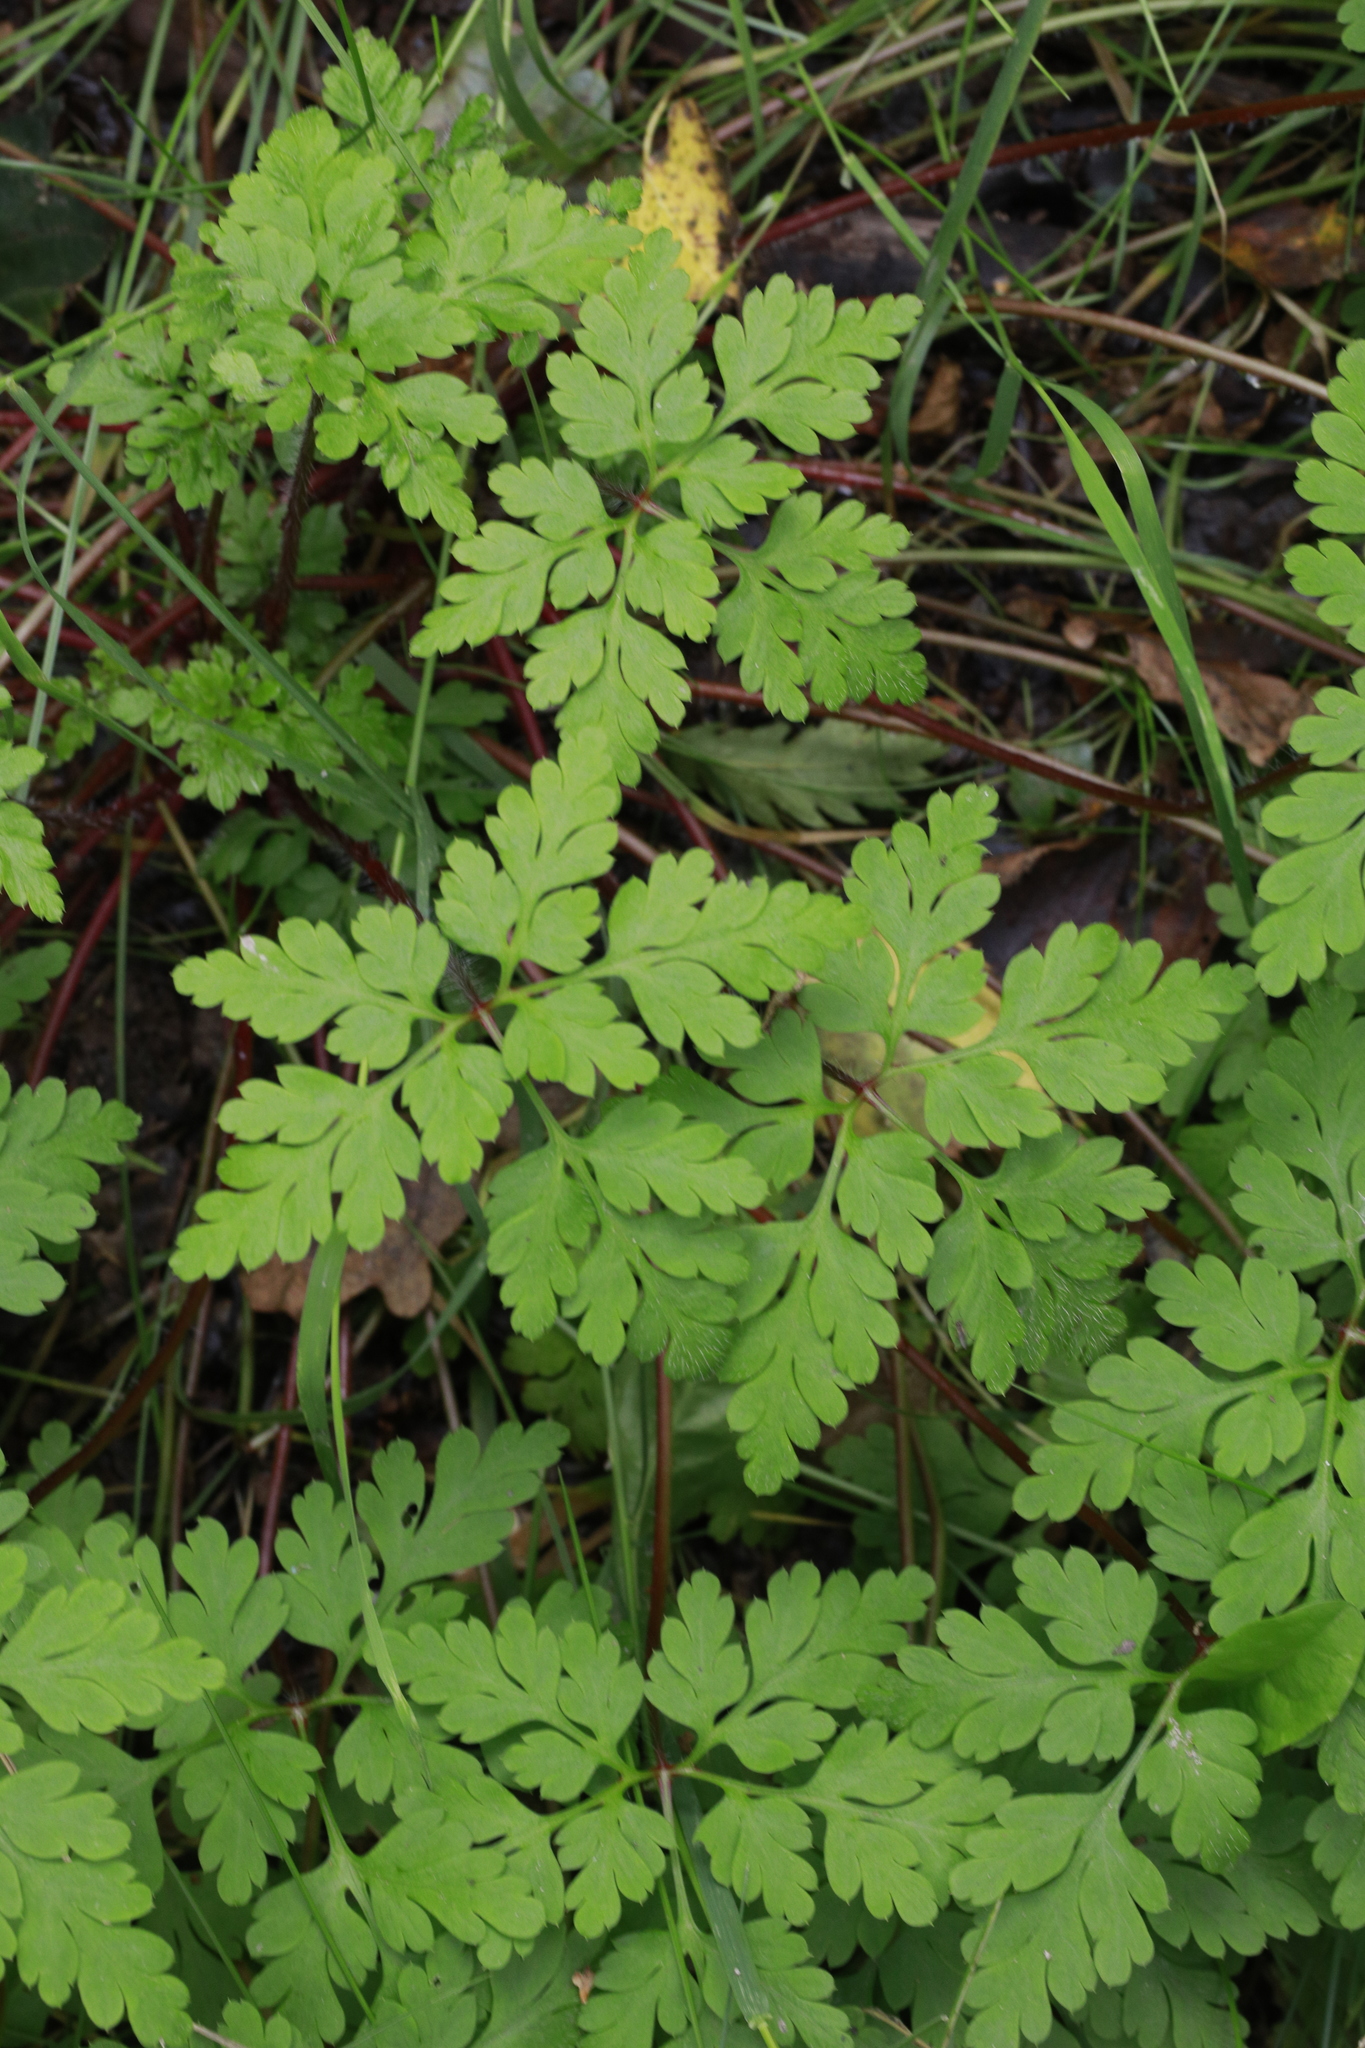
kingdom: Plantae
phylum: Tracheophyta
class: Magnoliopsida
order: Geraniales
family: Geraniaceae
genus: Geranium
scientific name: Geranium robertianum
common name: Herb-robert
